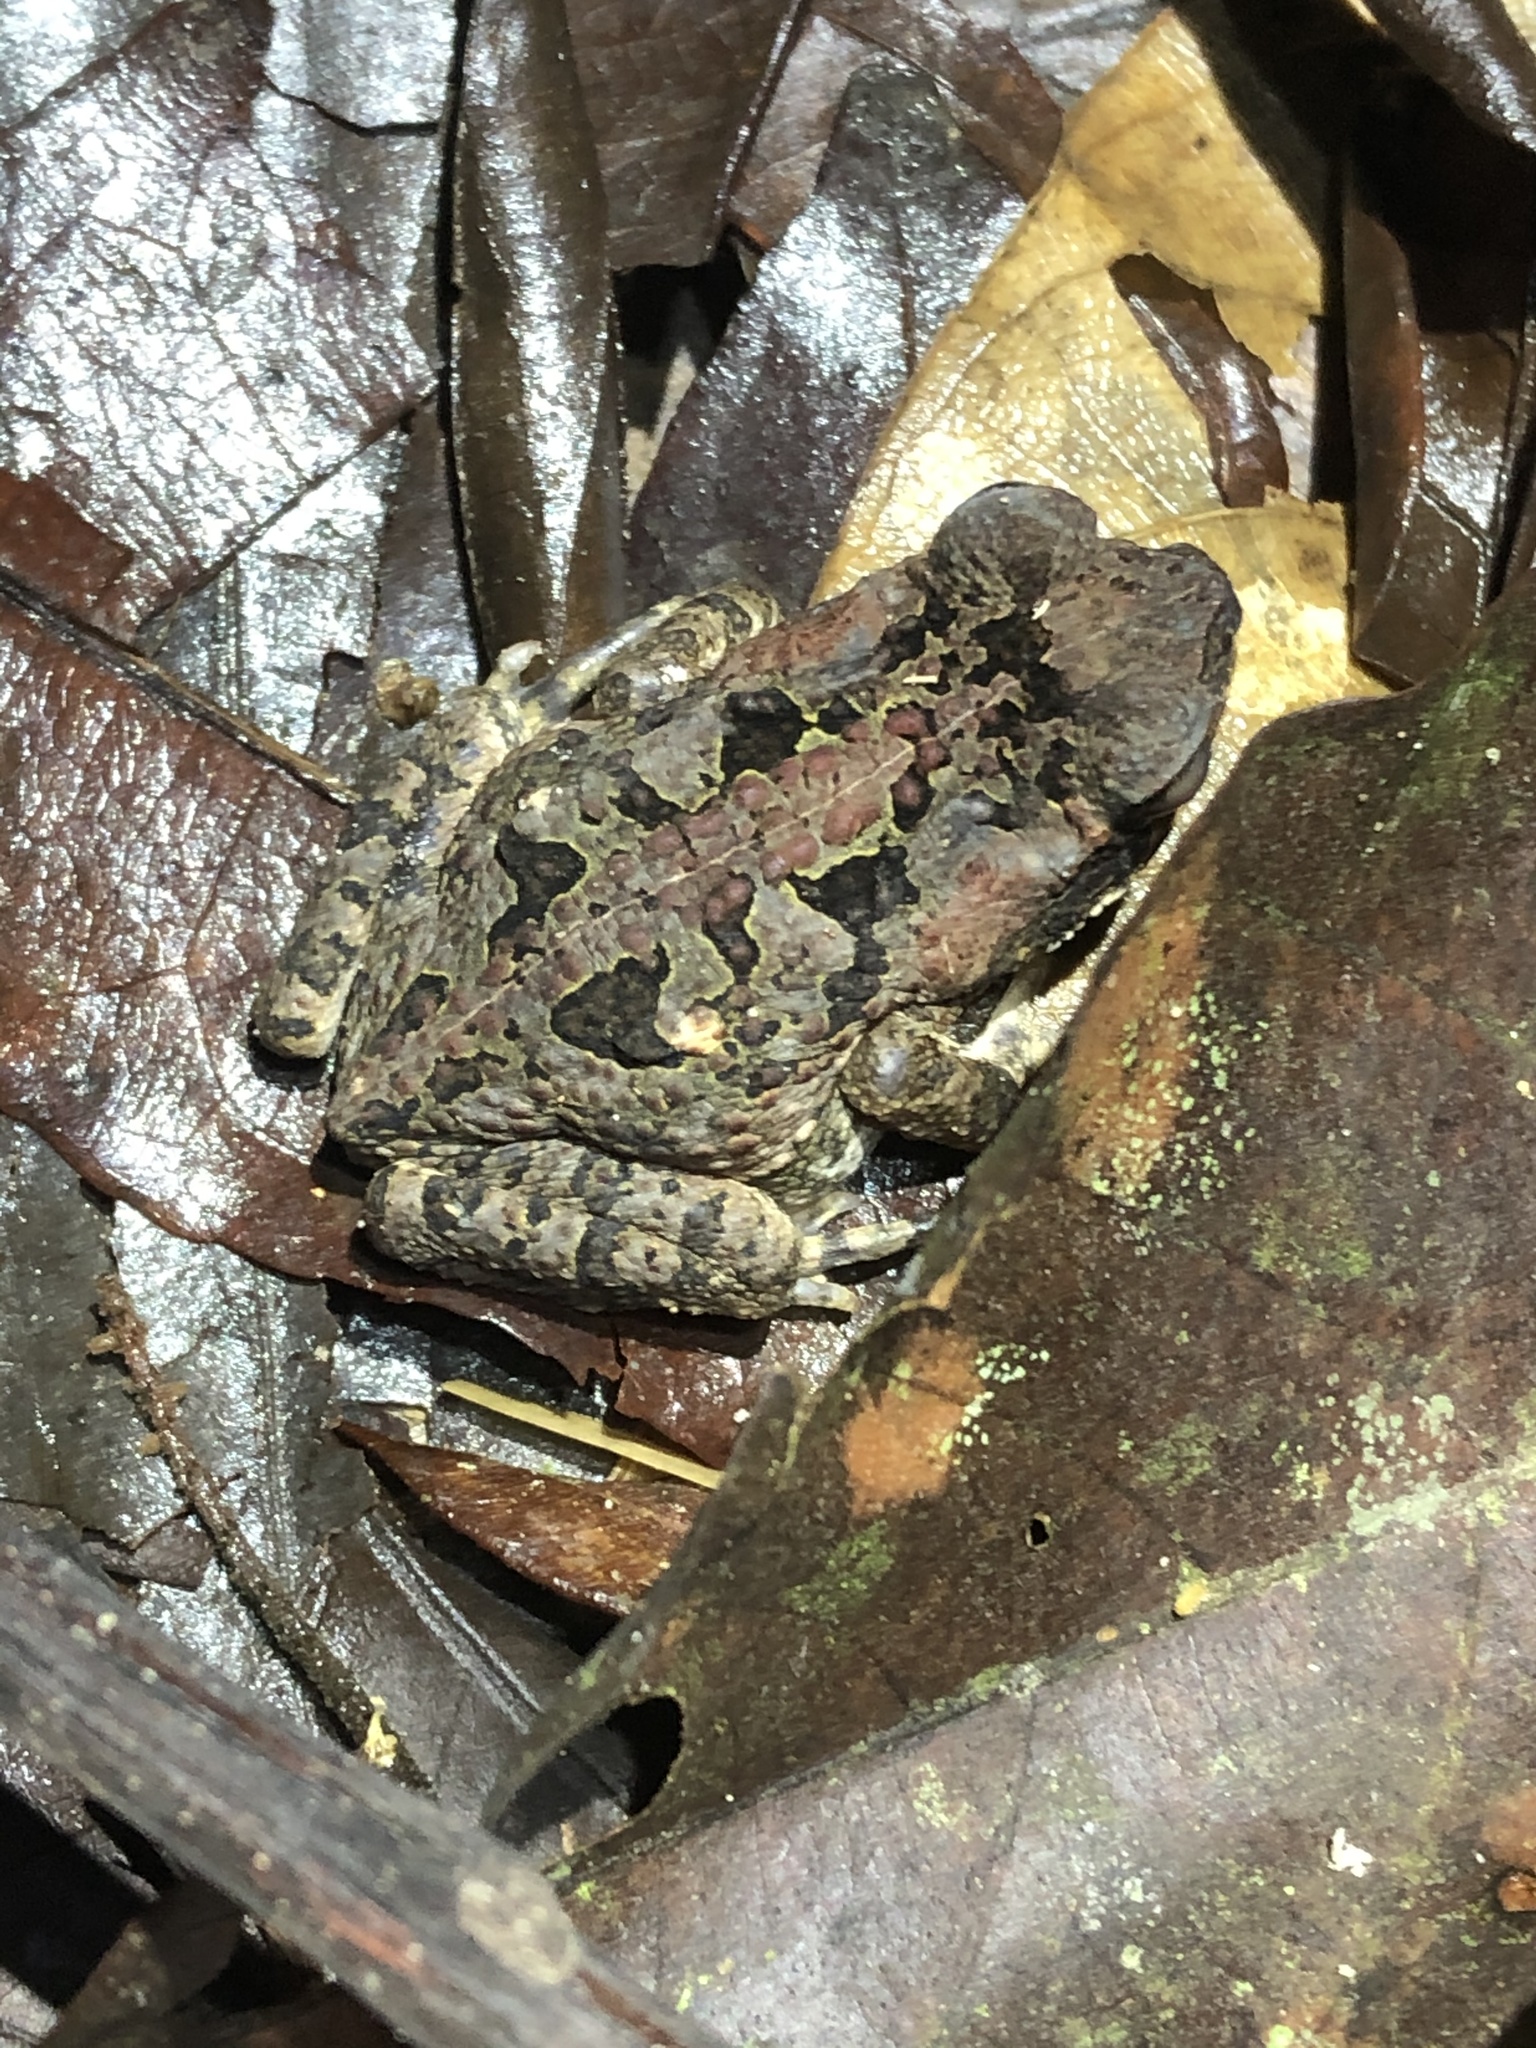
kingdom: Animalia
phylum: Chordata
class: Amphibia
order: Anura
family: Bufonidae
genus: Rhinella
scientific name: Rhinella marina
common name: Cane toad
